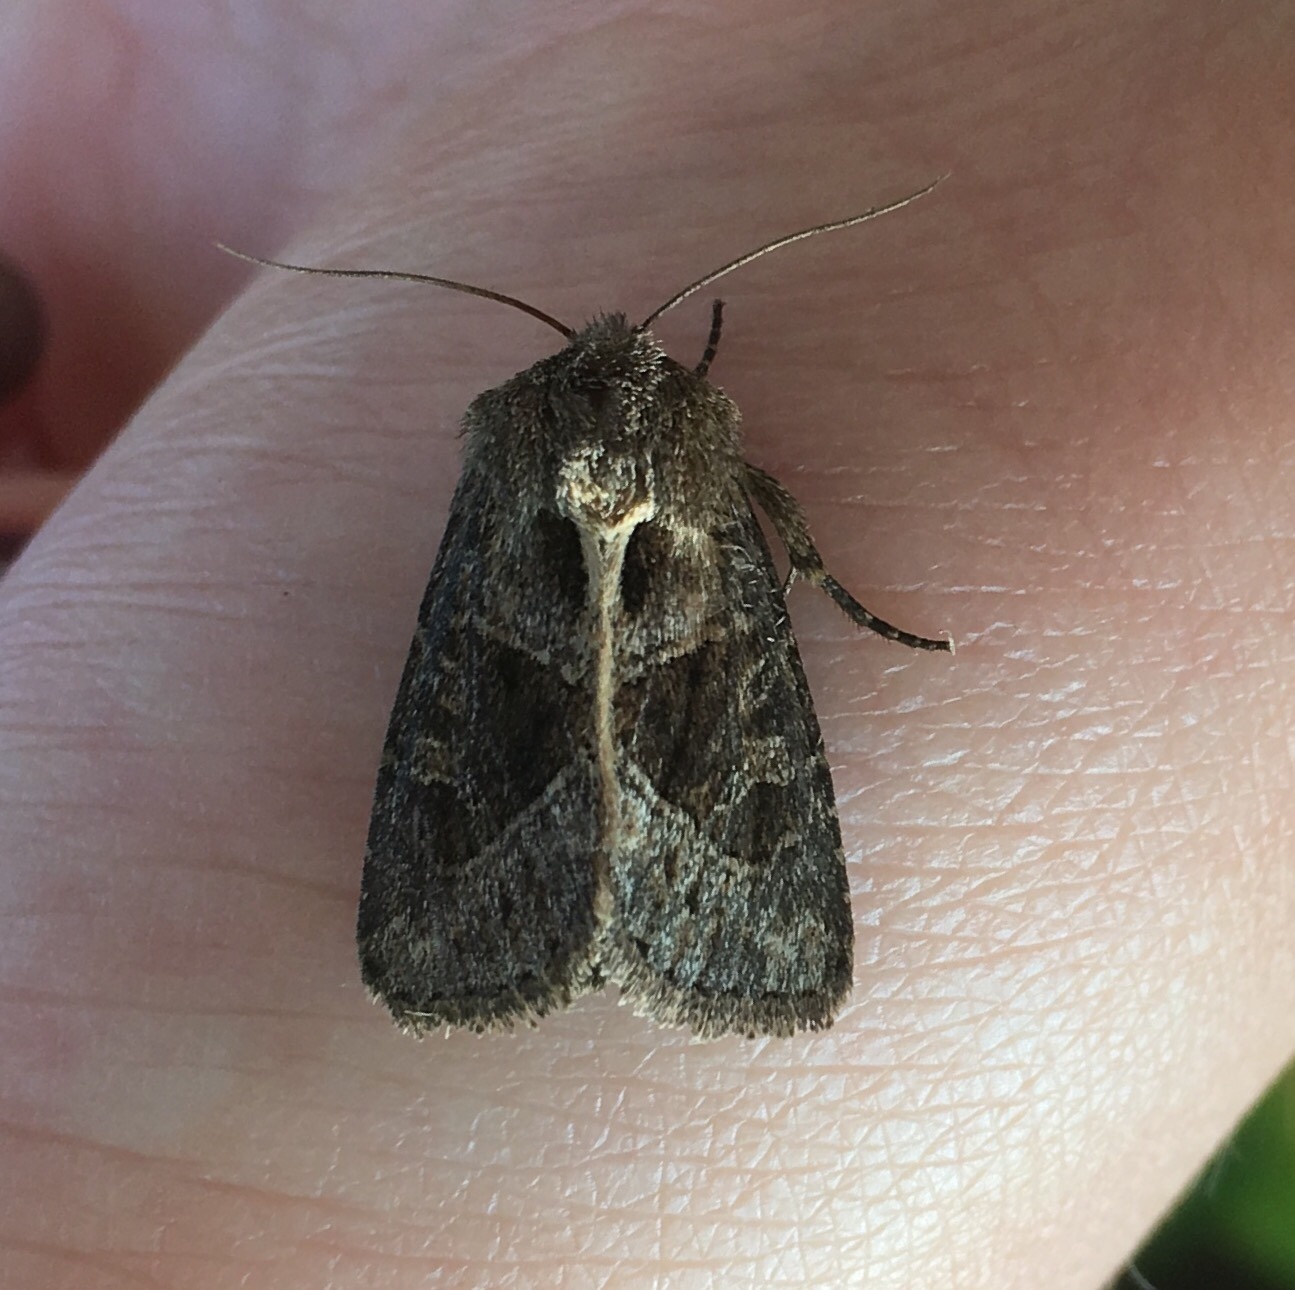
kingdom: Animalia
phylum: Arthropoda
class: Insecta
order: Lepidoptera
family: Noctuidae
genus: Oligia
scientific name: Oligia obtusa
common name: Obtuse sedge borer
